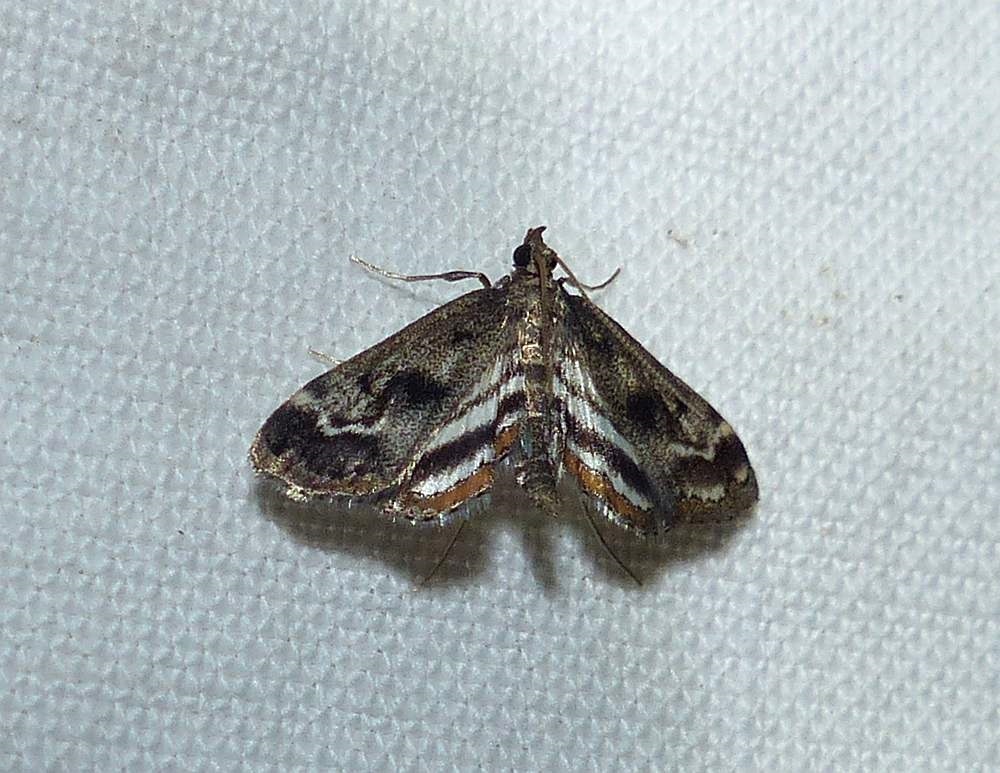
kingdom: Animalia
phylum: Arthropoda
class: Insecta
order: Lepidoptera
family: Crambidae
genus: Parapoynx
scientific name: Parapoynx obscuralis
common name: American china-mark
